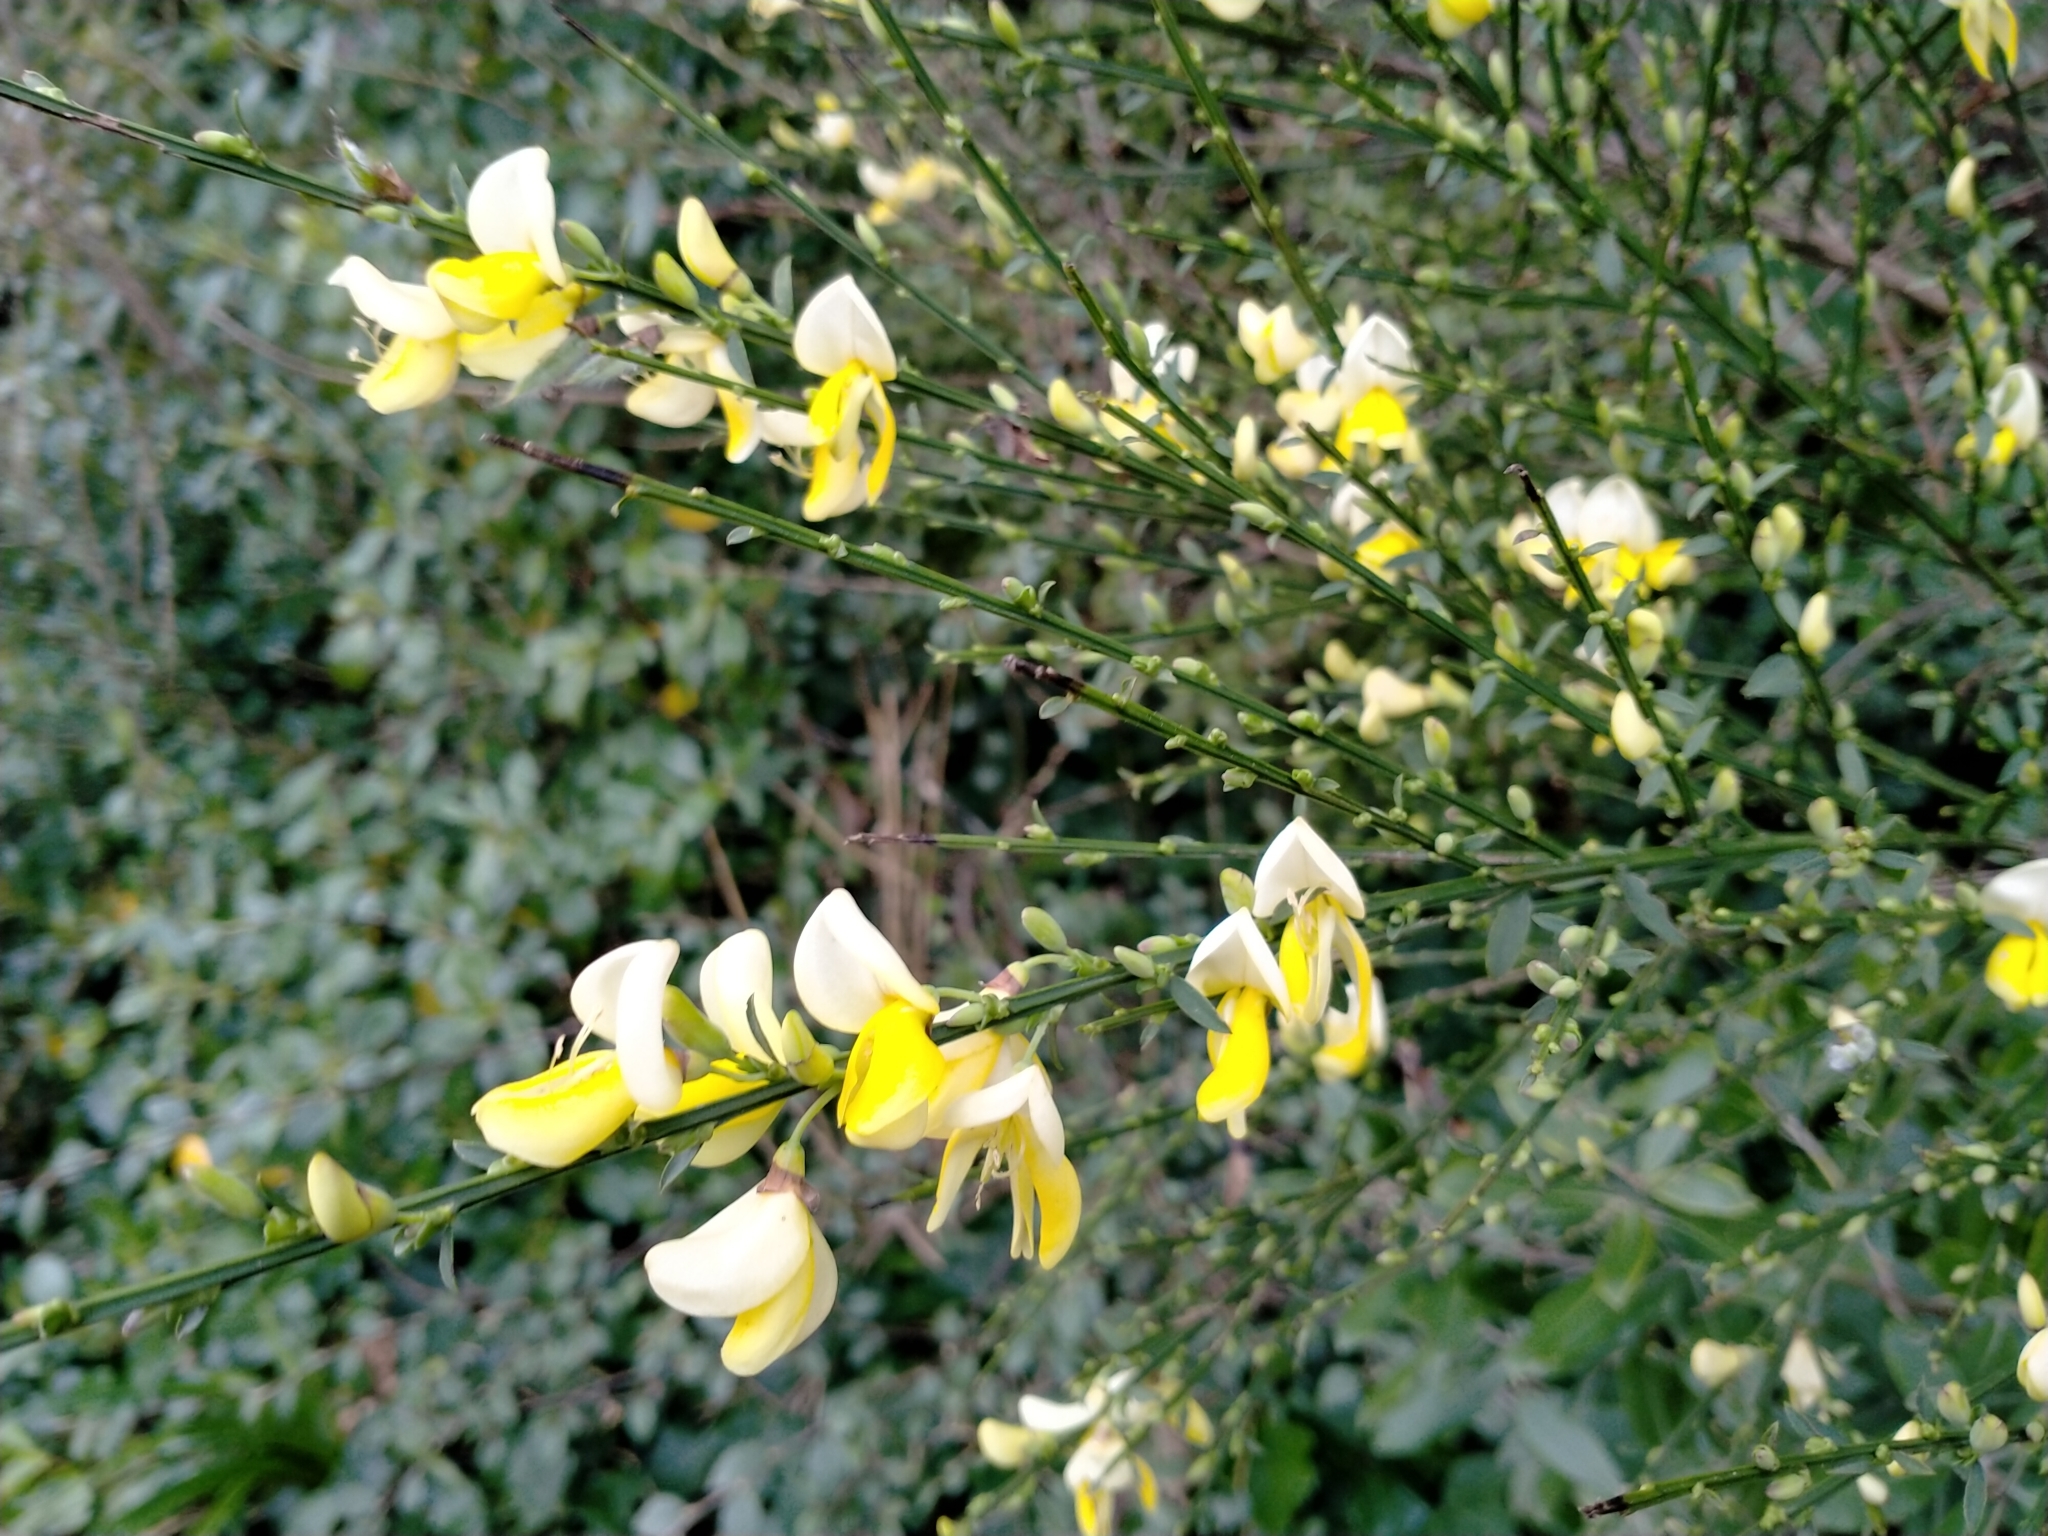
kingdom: Plantae
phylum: Tracheophyta
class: Magnoliopsida
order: Fabales
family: Fabaceae
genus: Cytisus
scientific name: Cytisus scoparius
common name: Scotch broom
